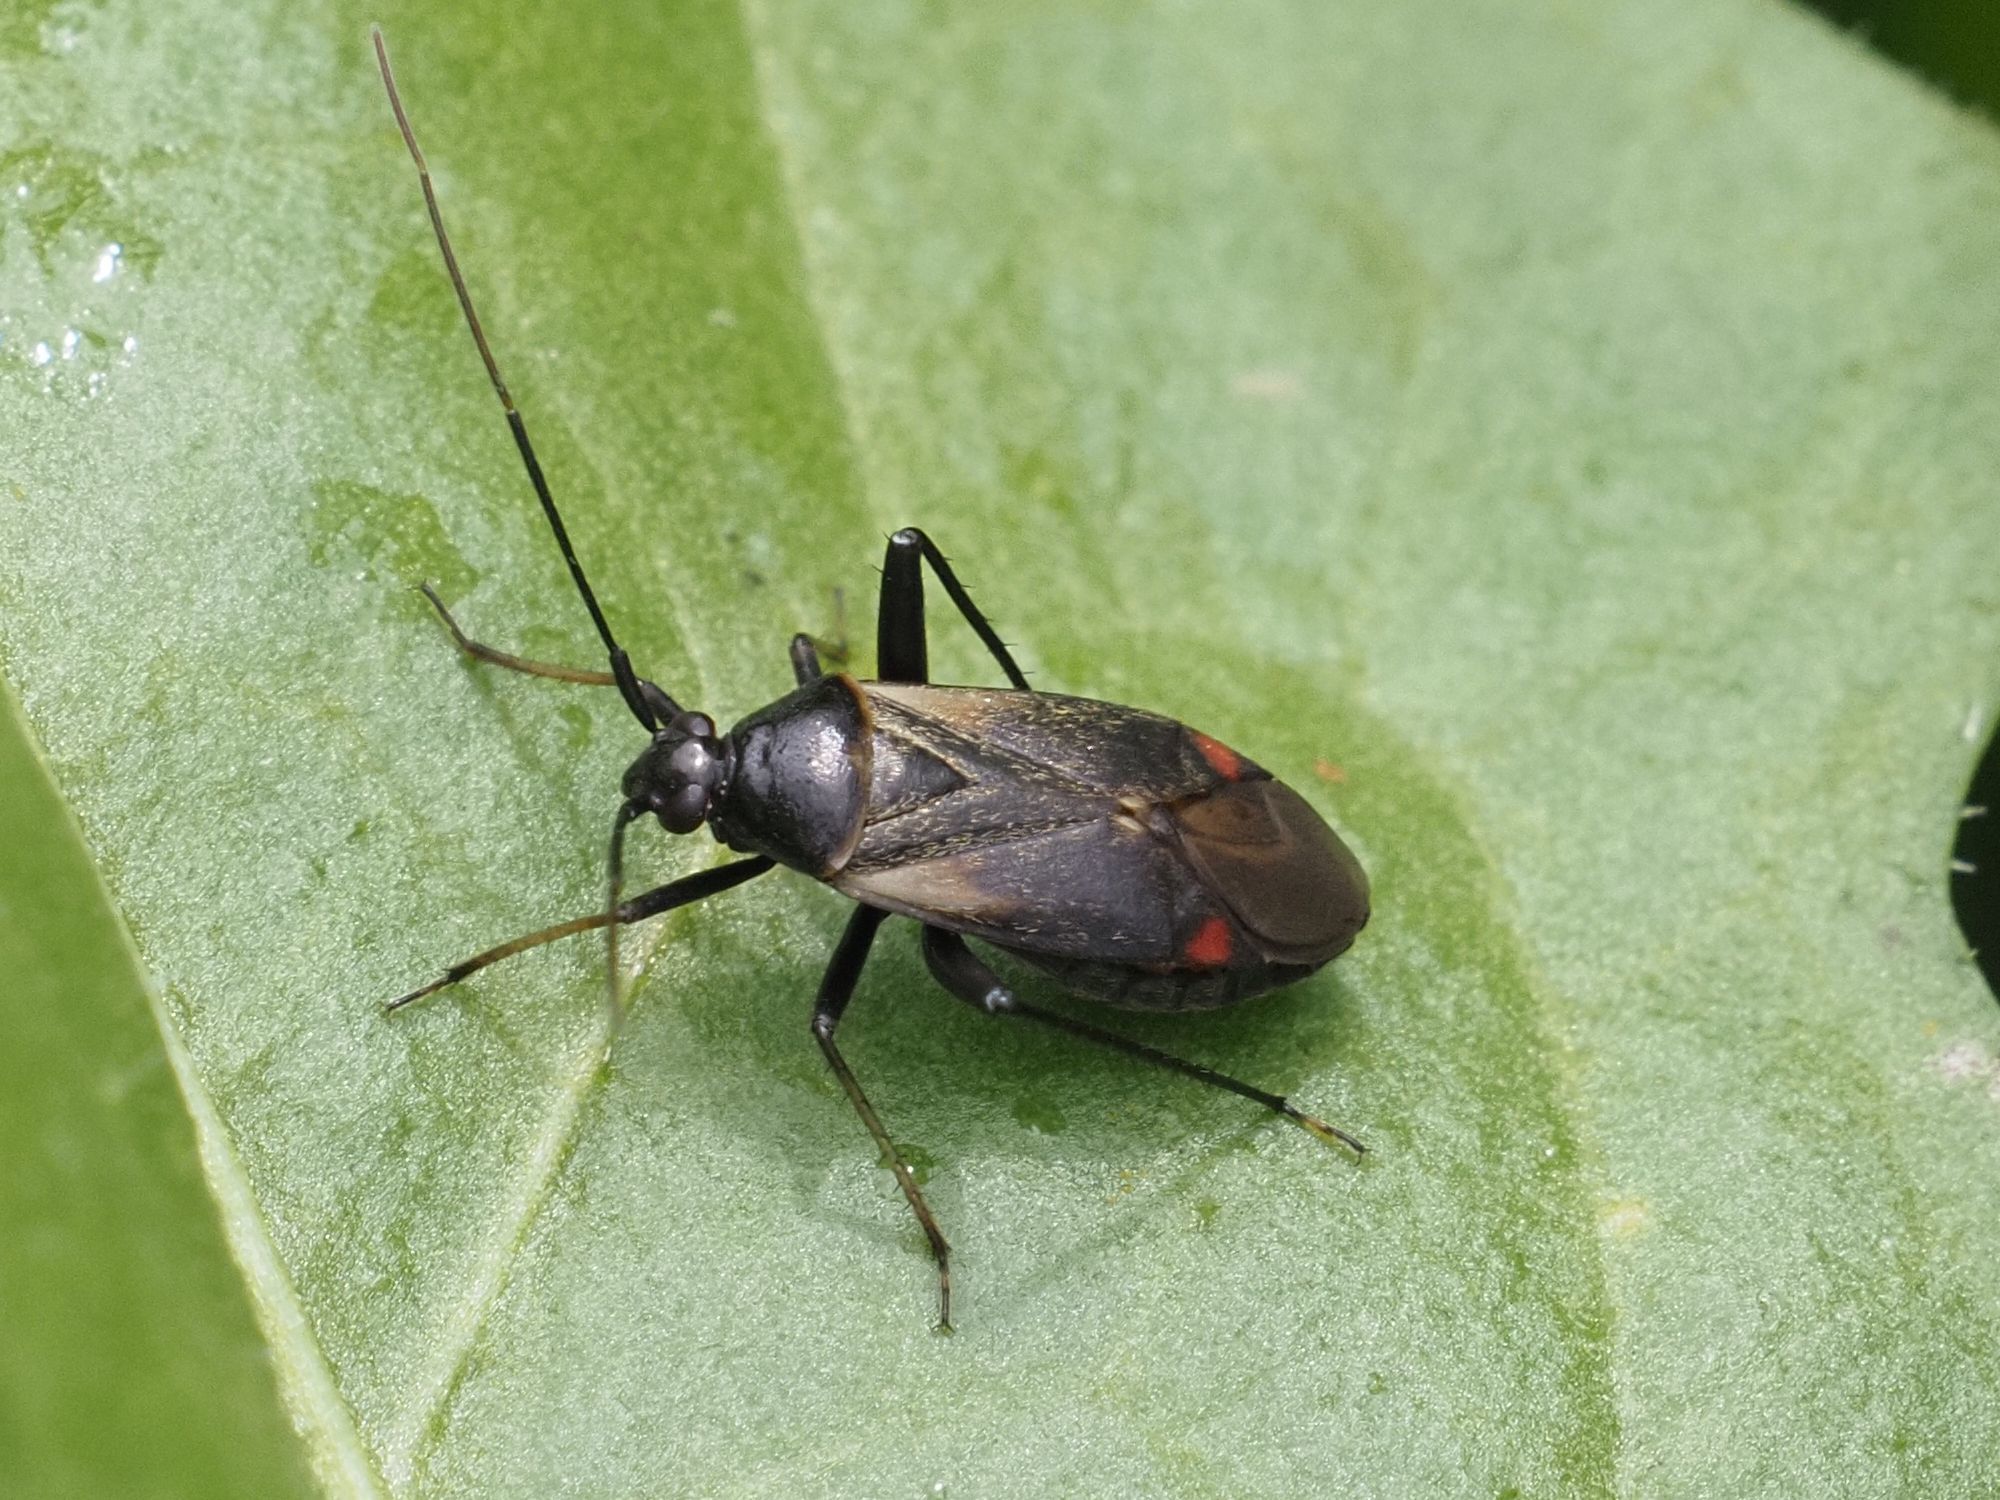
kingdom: Animalia
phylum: Arthropoda
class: Insecta
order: Hemiptera
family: Miridae
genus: Adelphocoris
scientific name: Adelphocoris seticornis
